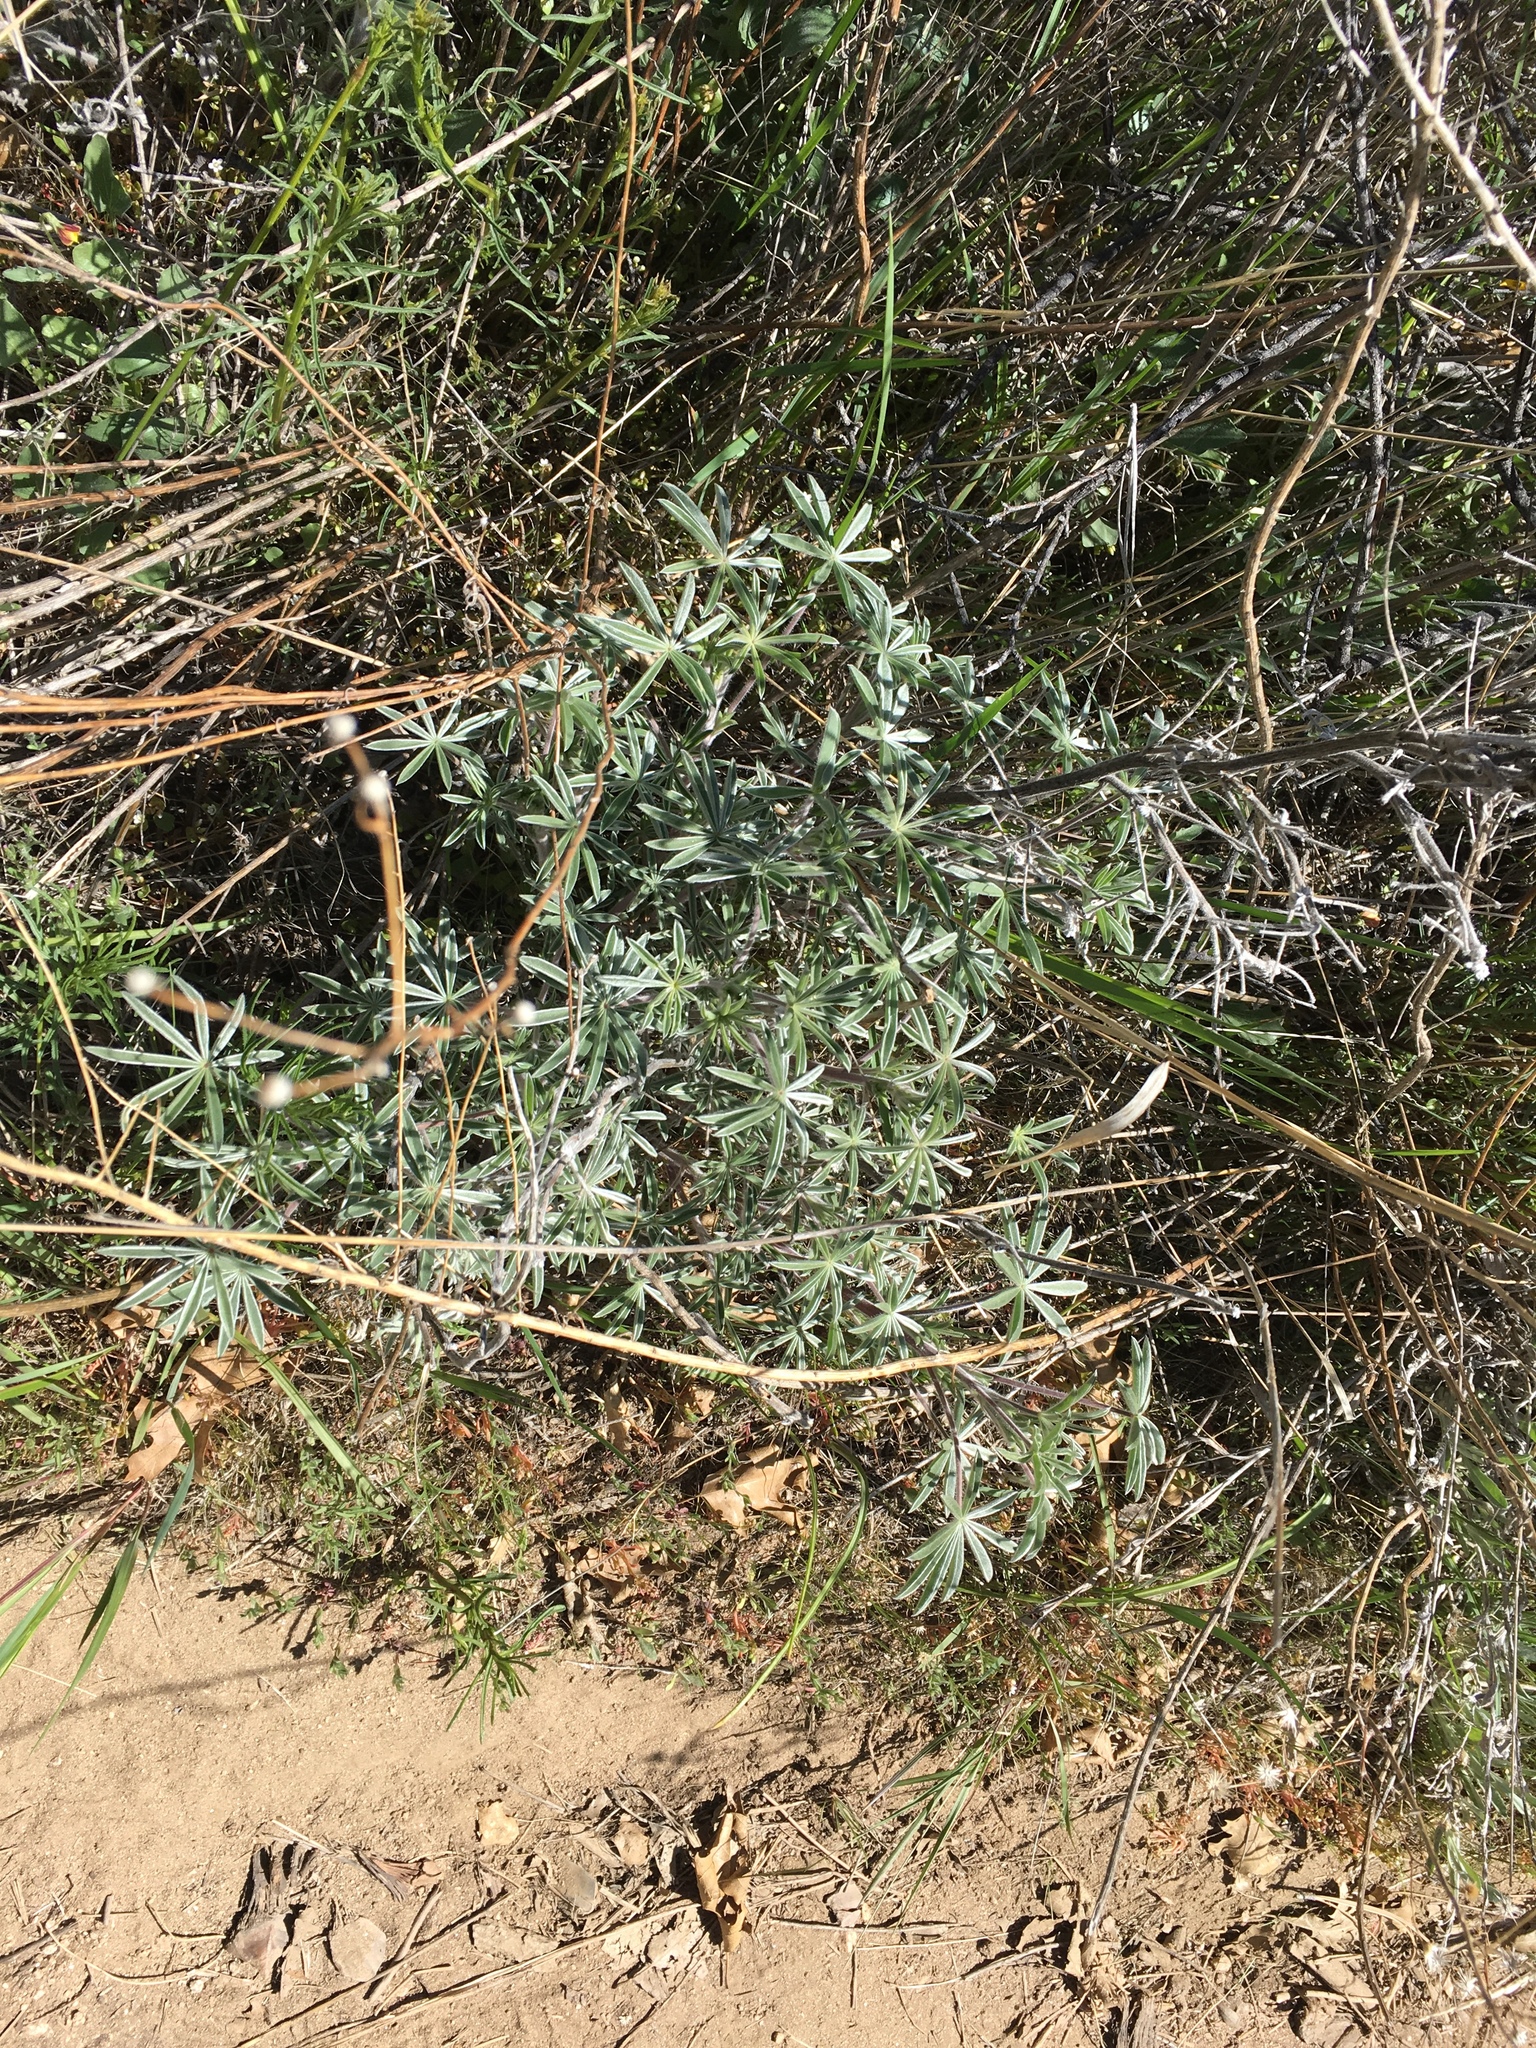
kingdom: Plantae
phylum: Tracheophyta
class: Magnoliopsida
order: Fabales
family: Fabaceae
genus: Lupinus
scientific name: Lupinus
